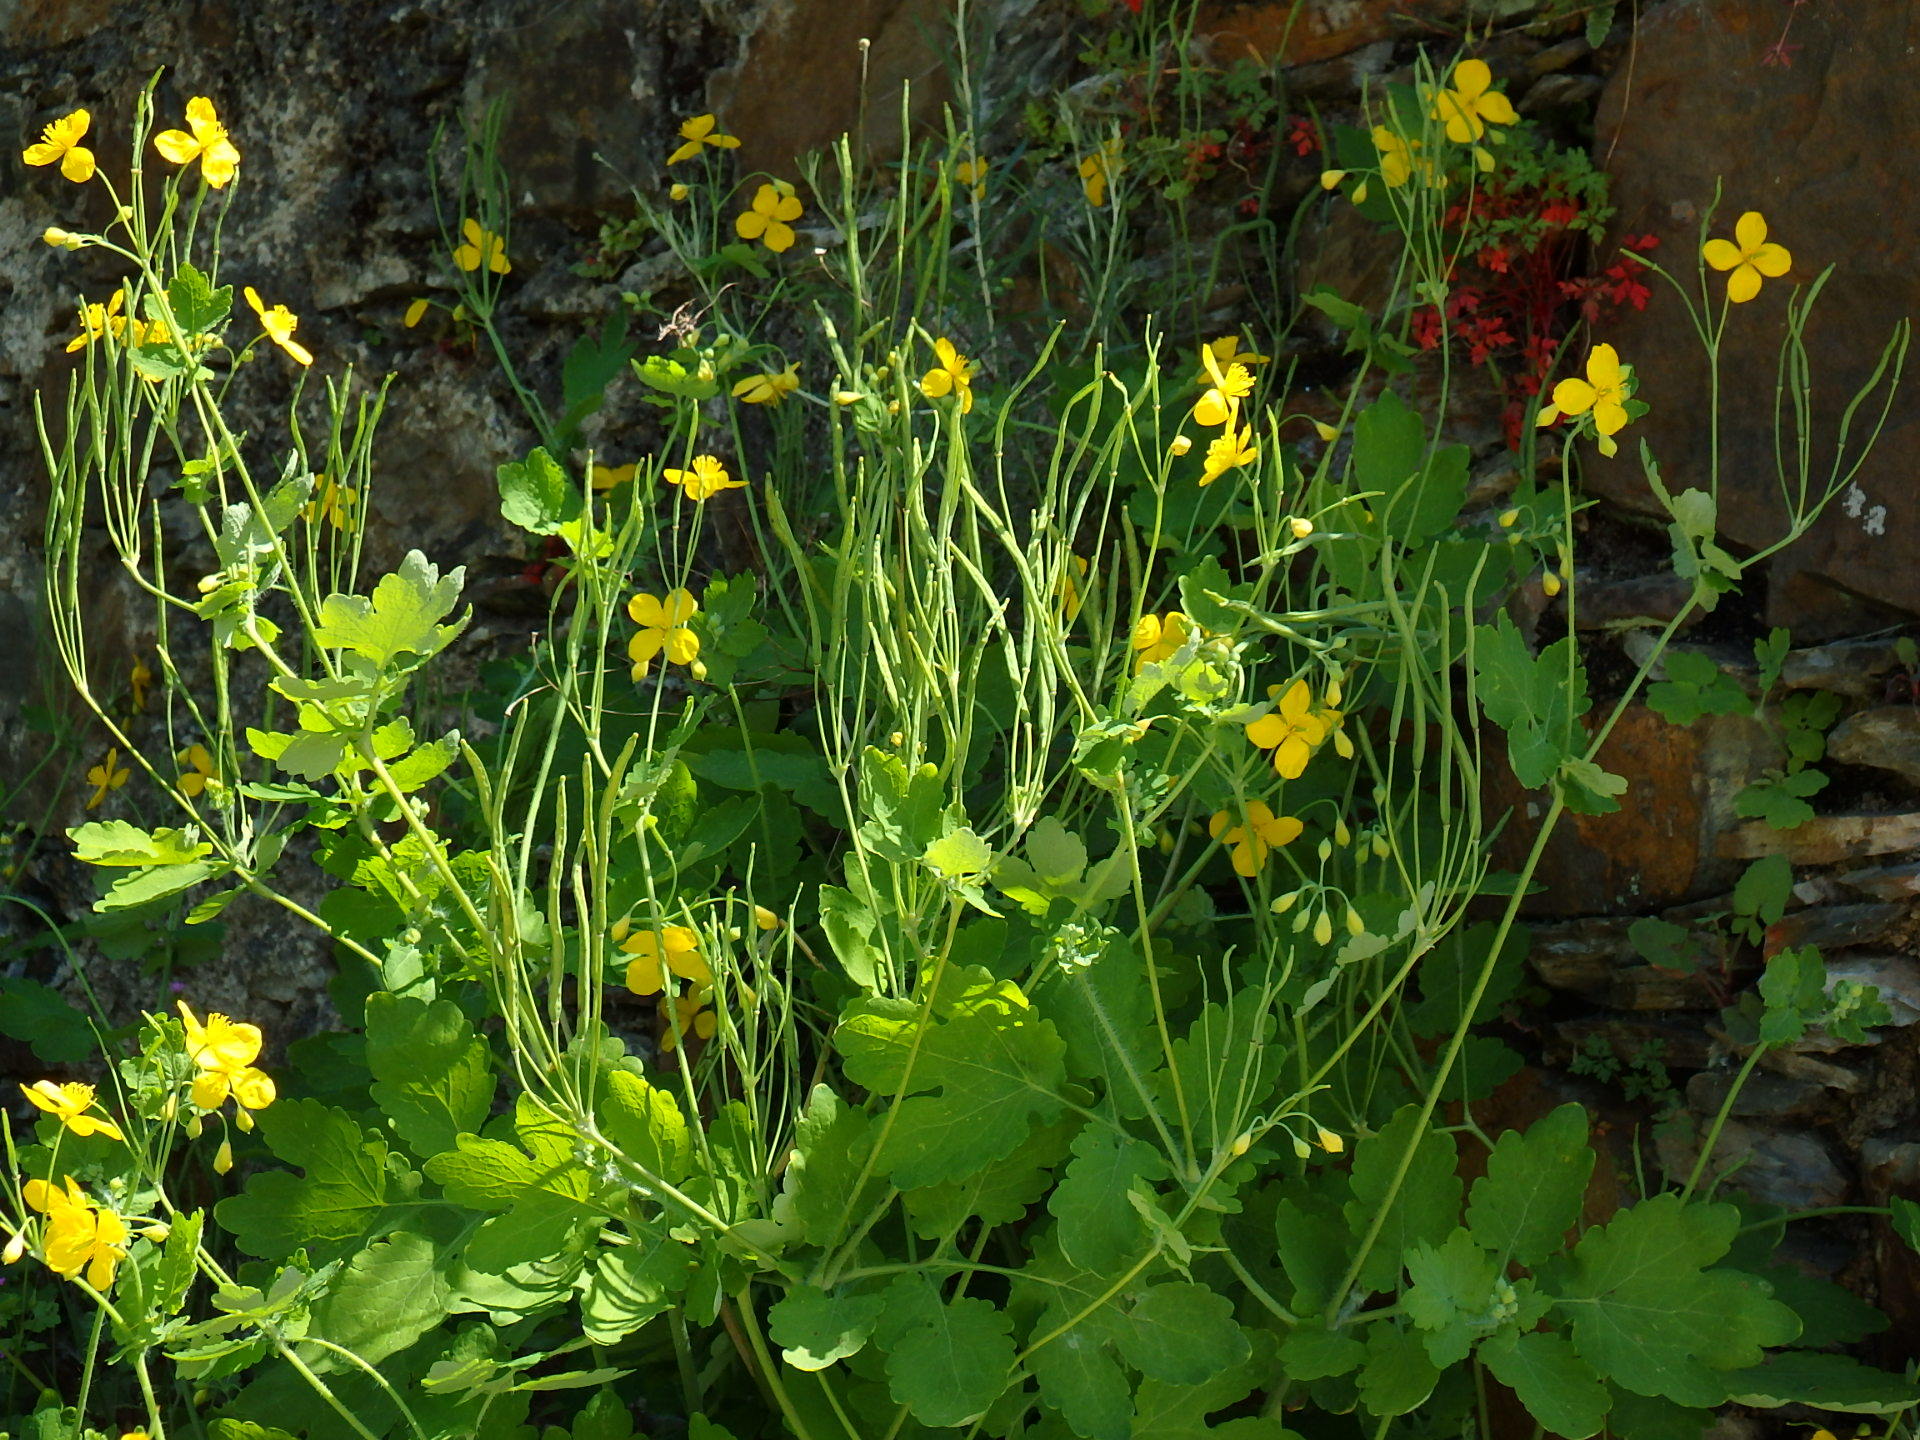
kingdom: Plantae
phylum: Tracheophyta
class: Magnoliopsida
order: Ranunculales
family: Papaveraceae
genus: Chelidonium
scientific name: Chelidonium majus
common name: Greater celandine
